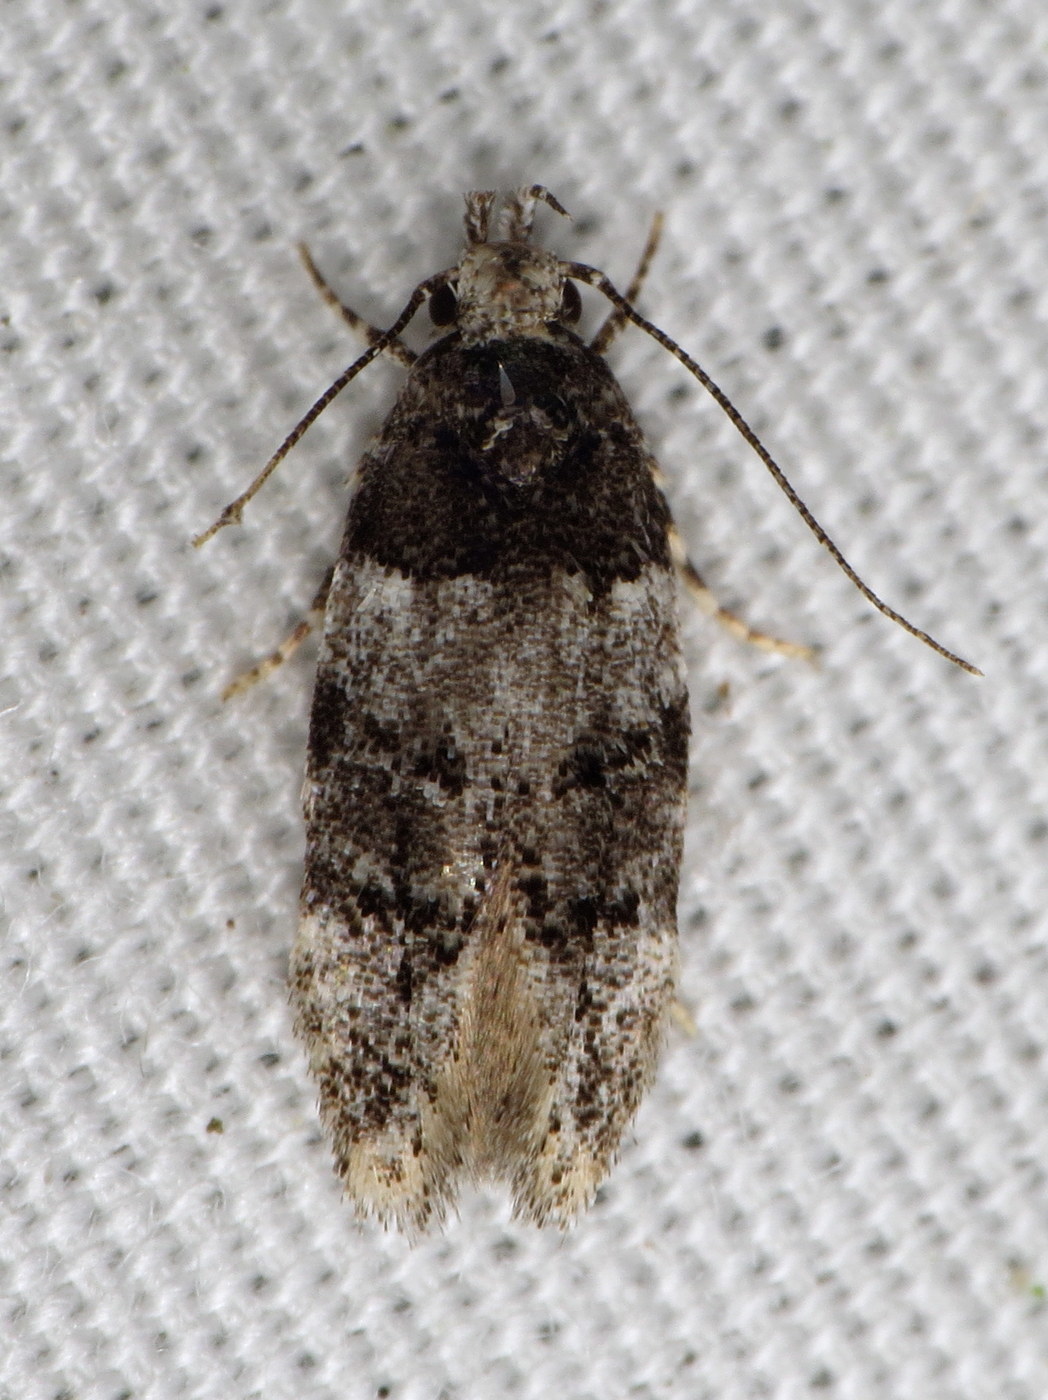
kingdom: Animalia
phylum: Arthropoda
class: Insecta
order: Lepidoptera
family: Gelechiidae
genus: Pubitelphusa
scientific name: Pubitelphusa latifasciella
